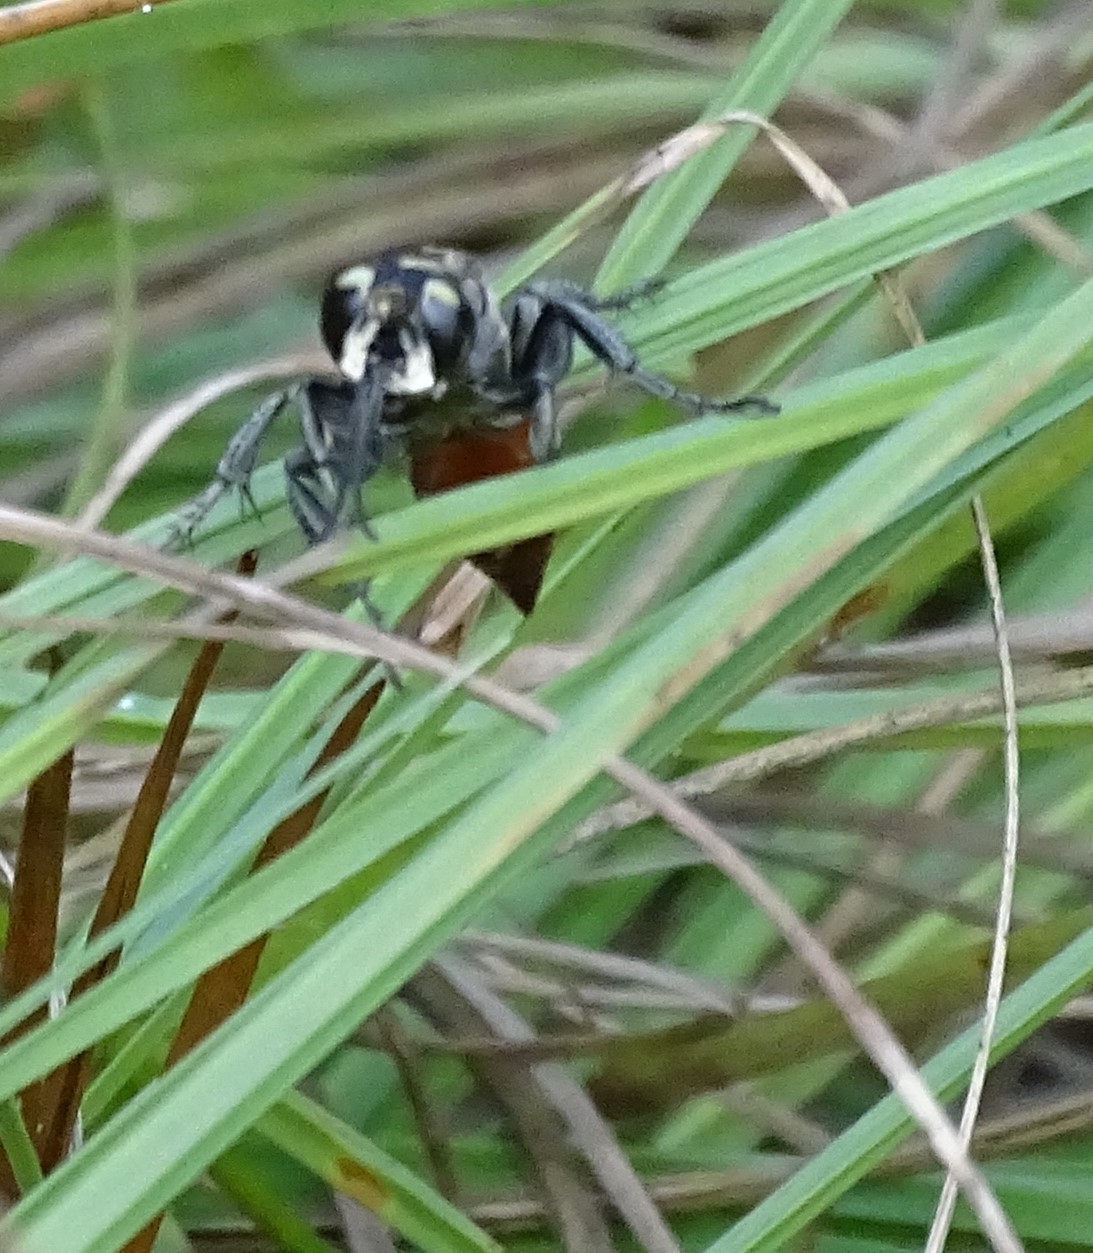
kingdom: Animalia
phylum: Arthropoda
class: Insecta
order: Hymenoptera
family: Crabronidae
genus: Larra
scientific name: Larra bicolor
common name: Wasp
